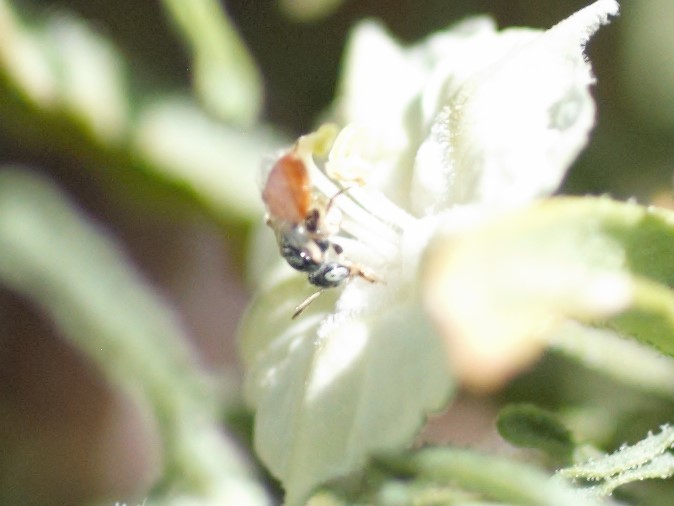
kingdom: Animalia
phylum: Arthropoda
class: Insecta
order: Hymenoptera
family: Andrenidae
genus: Perdita
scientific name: Perdita chamaesarachae
